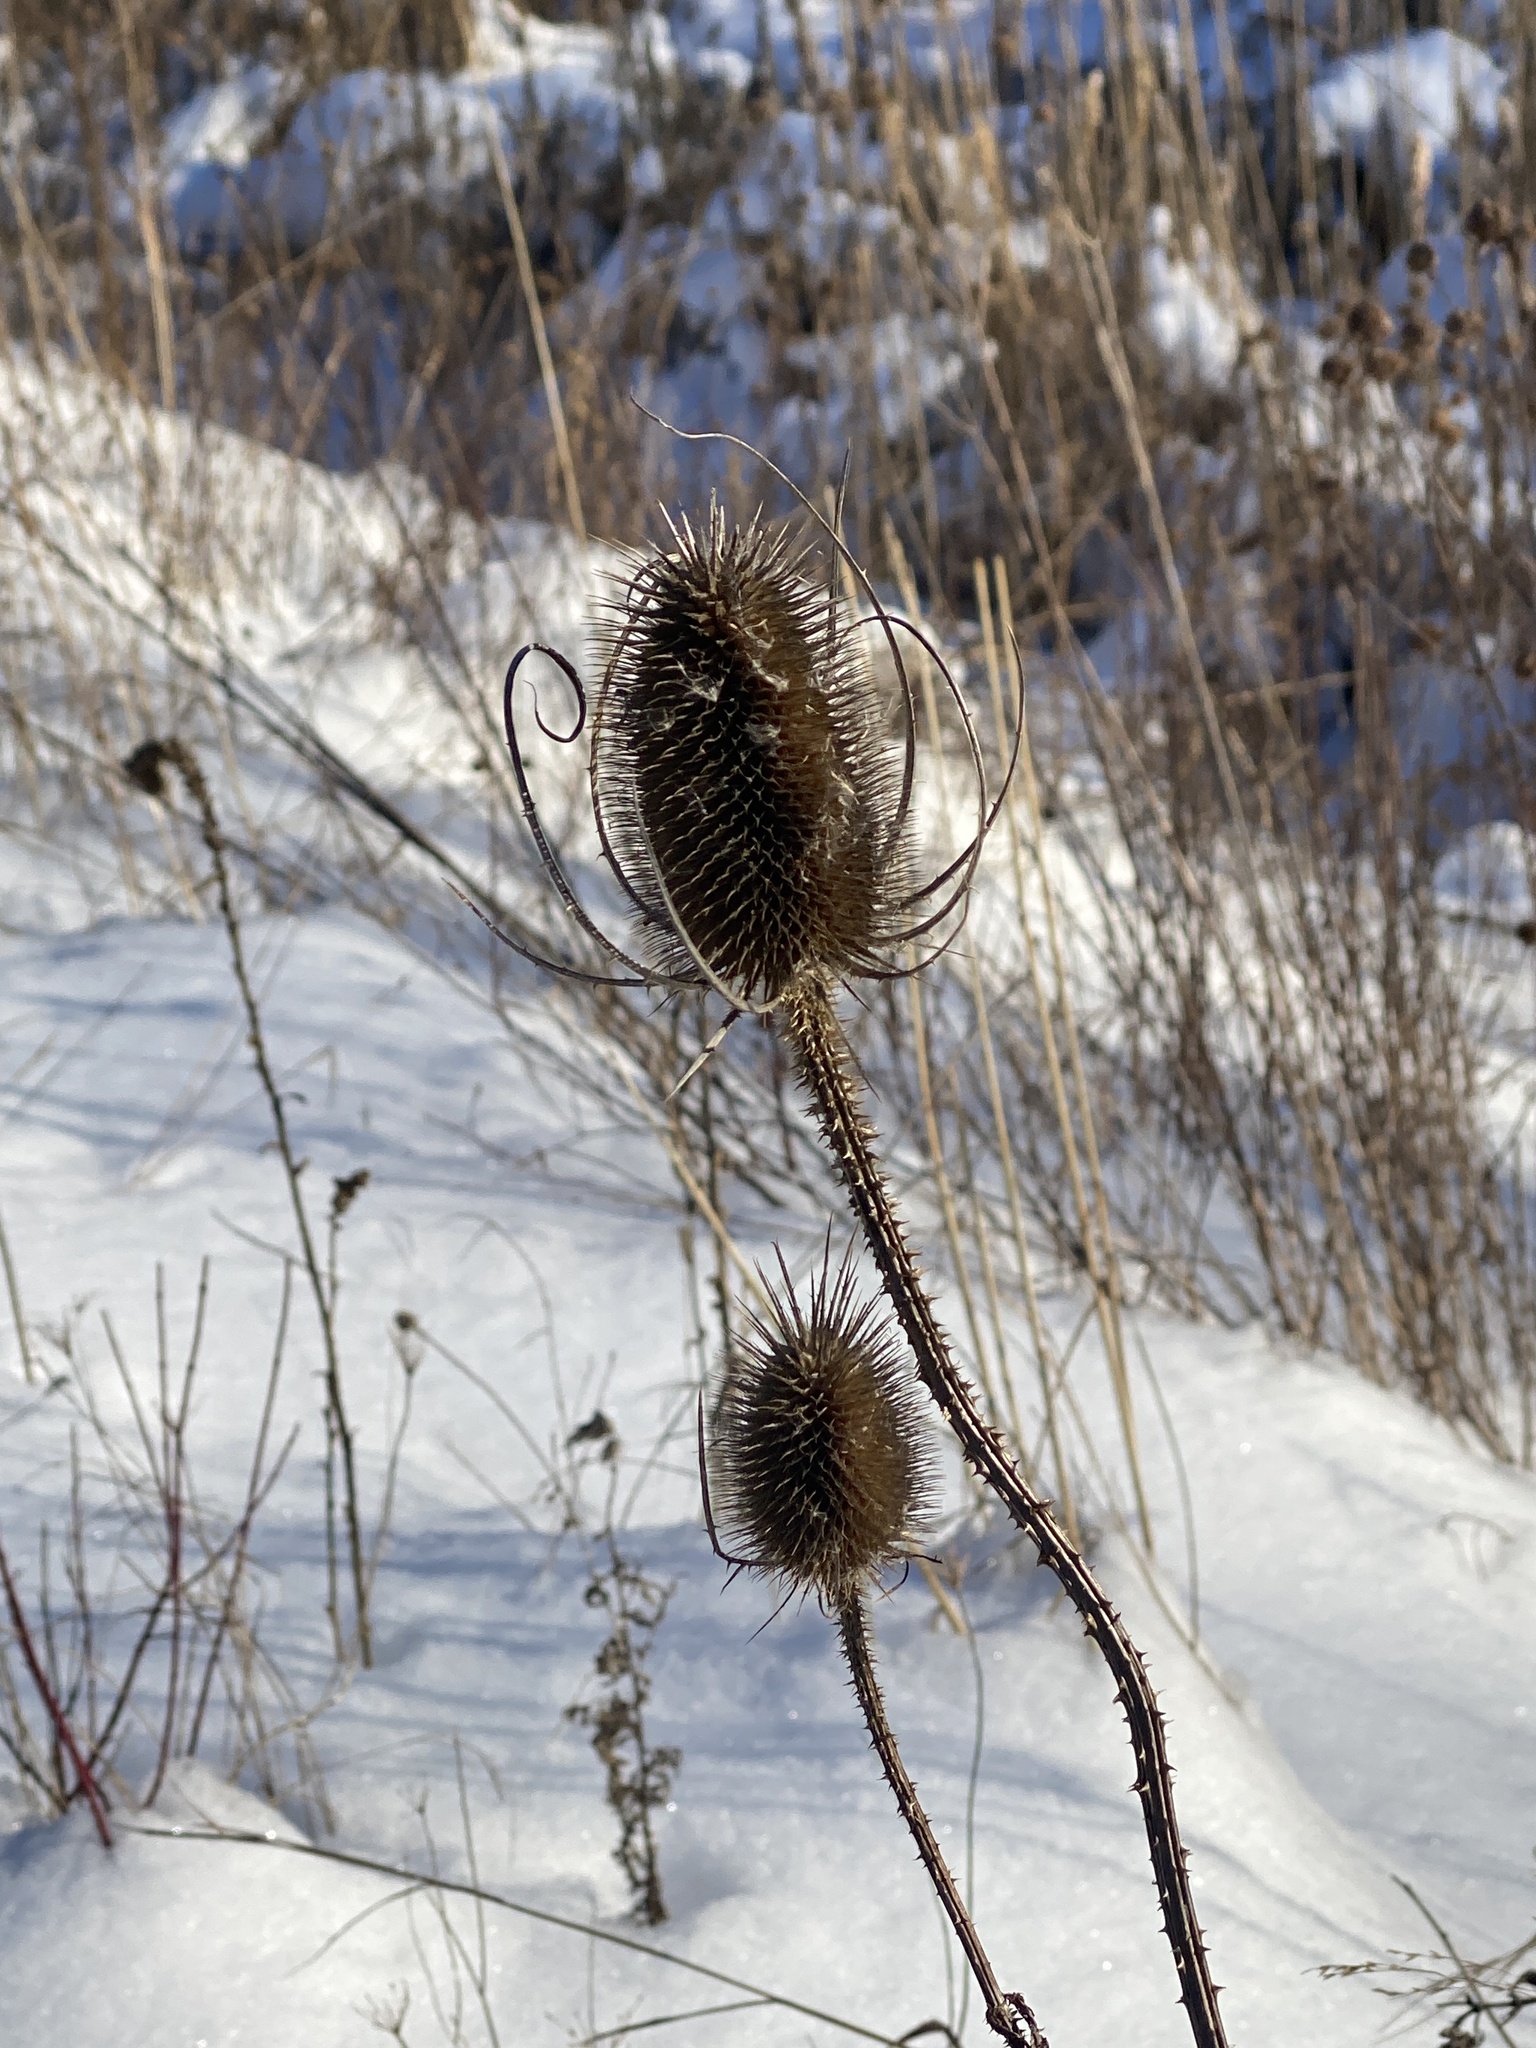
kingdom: Plantae
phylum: Tracheophyta
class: Magnoliopsida
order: Dipsacales
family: Caprifoliaceae
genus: Dipsacus
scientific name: Dipsacus fullonum
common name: Teasel
